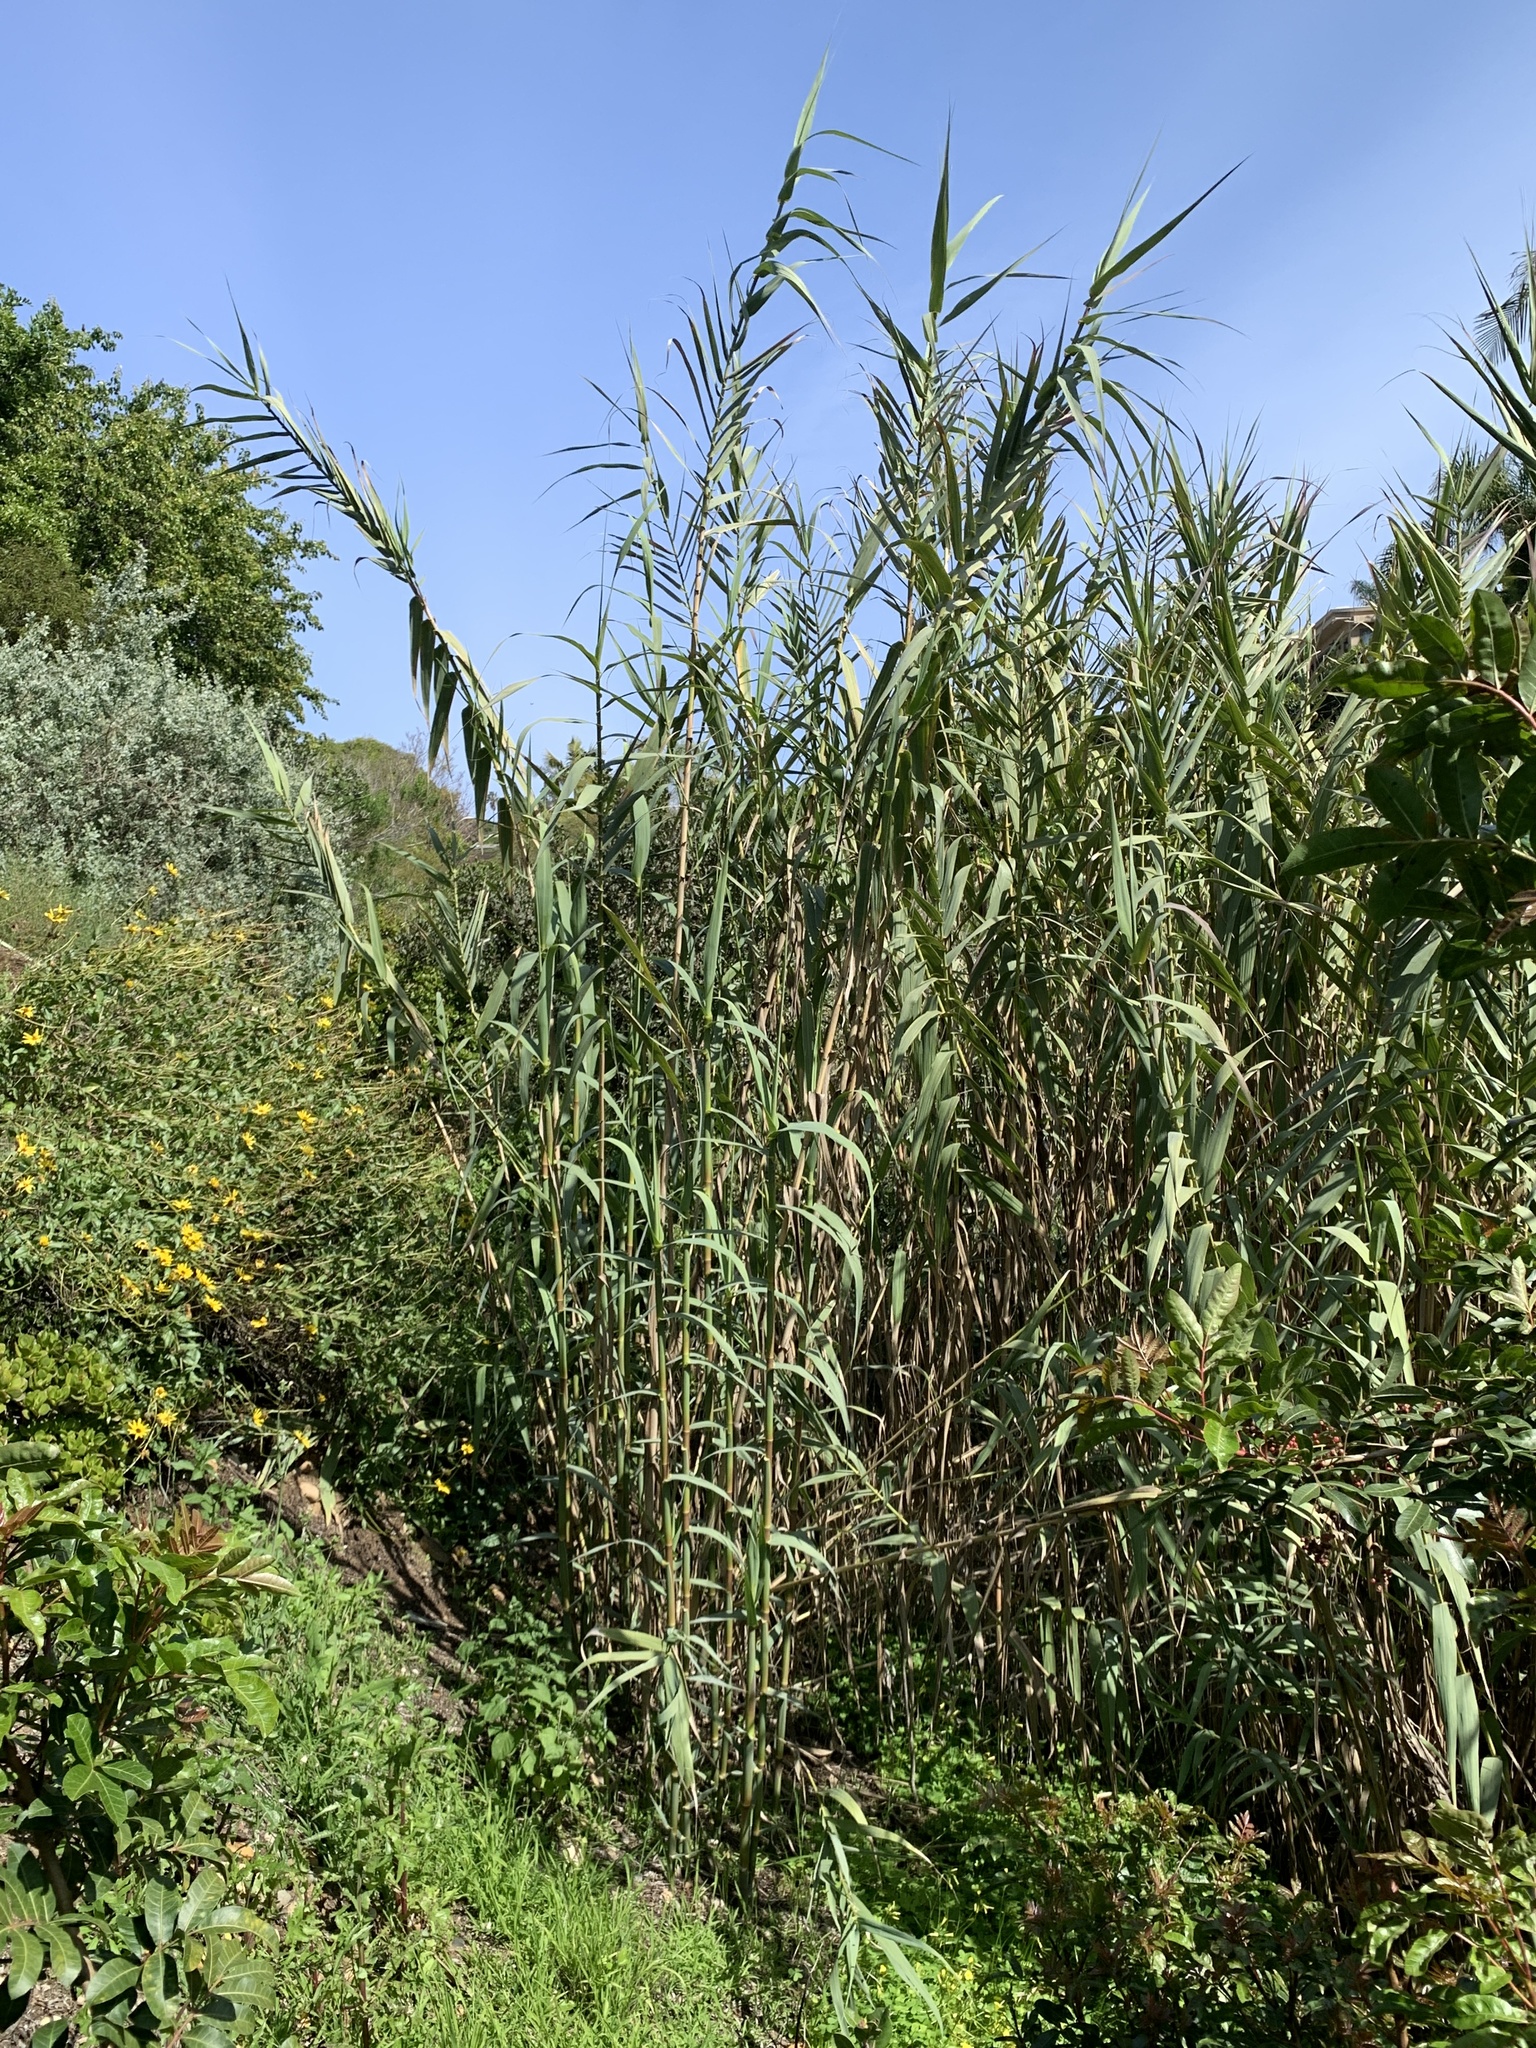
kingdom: Plantae
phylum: Tracheophyta
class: Liliopsida
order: Poales
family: Poaceae
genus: Arundo
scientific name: Arundo donax
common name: Giant reed
